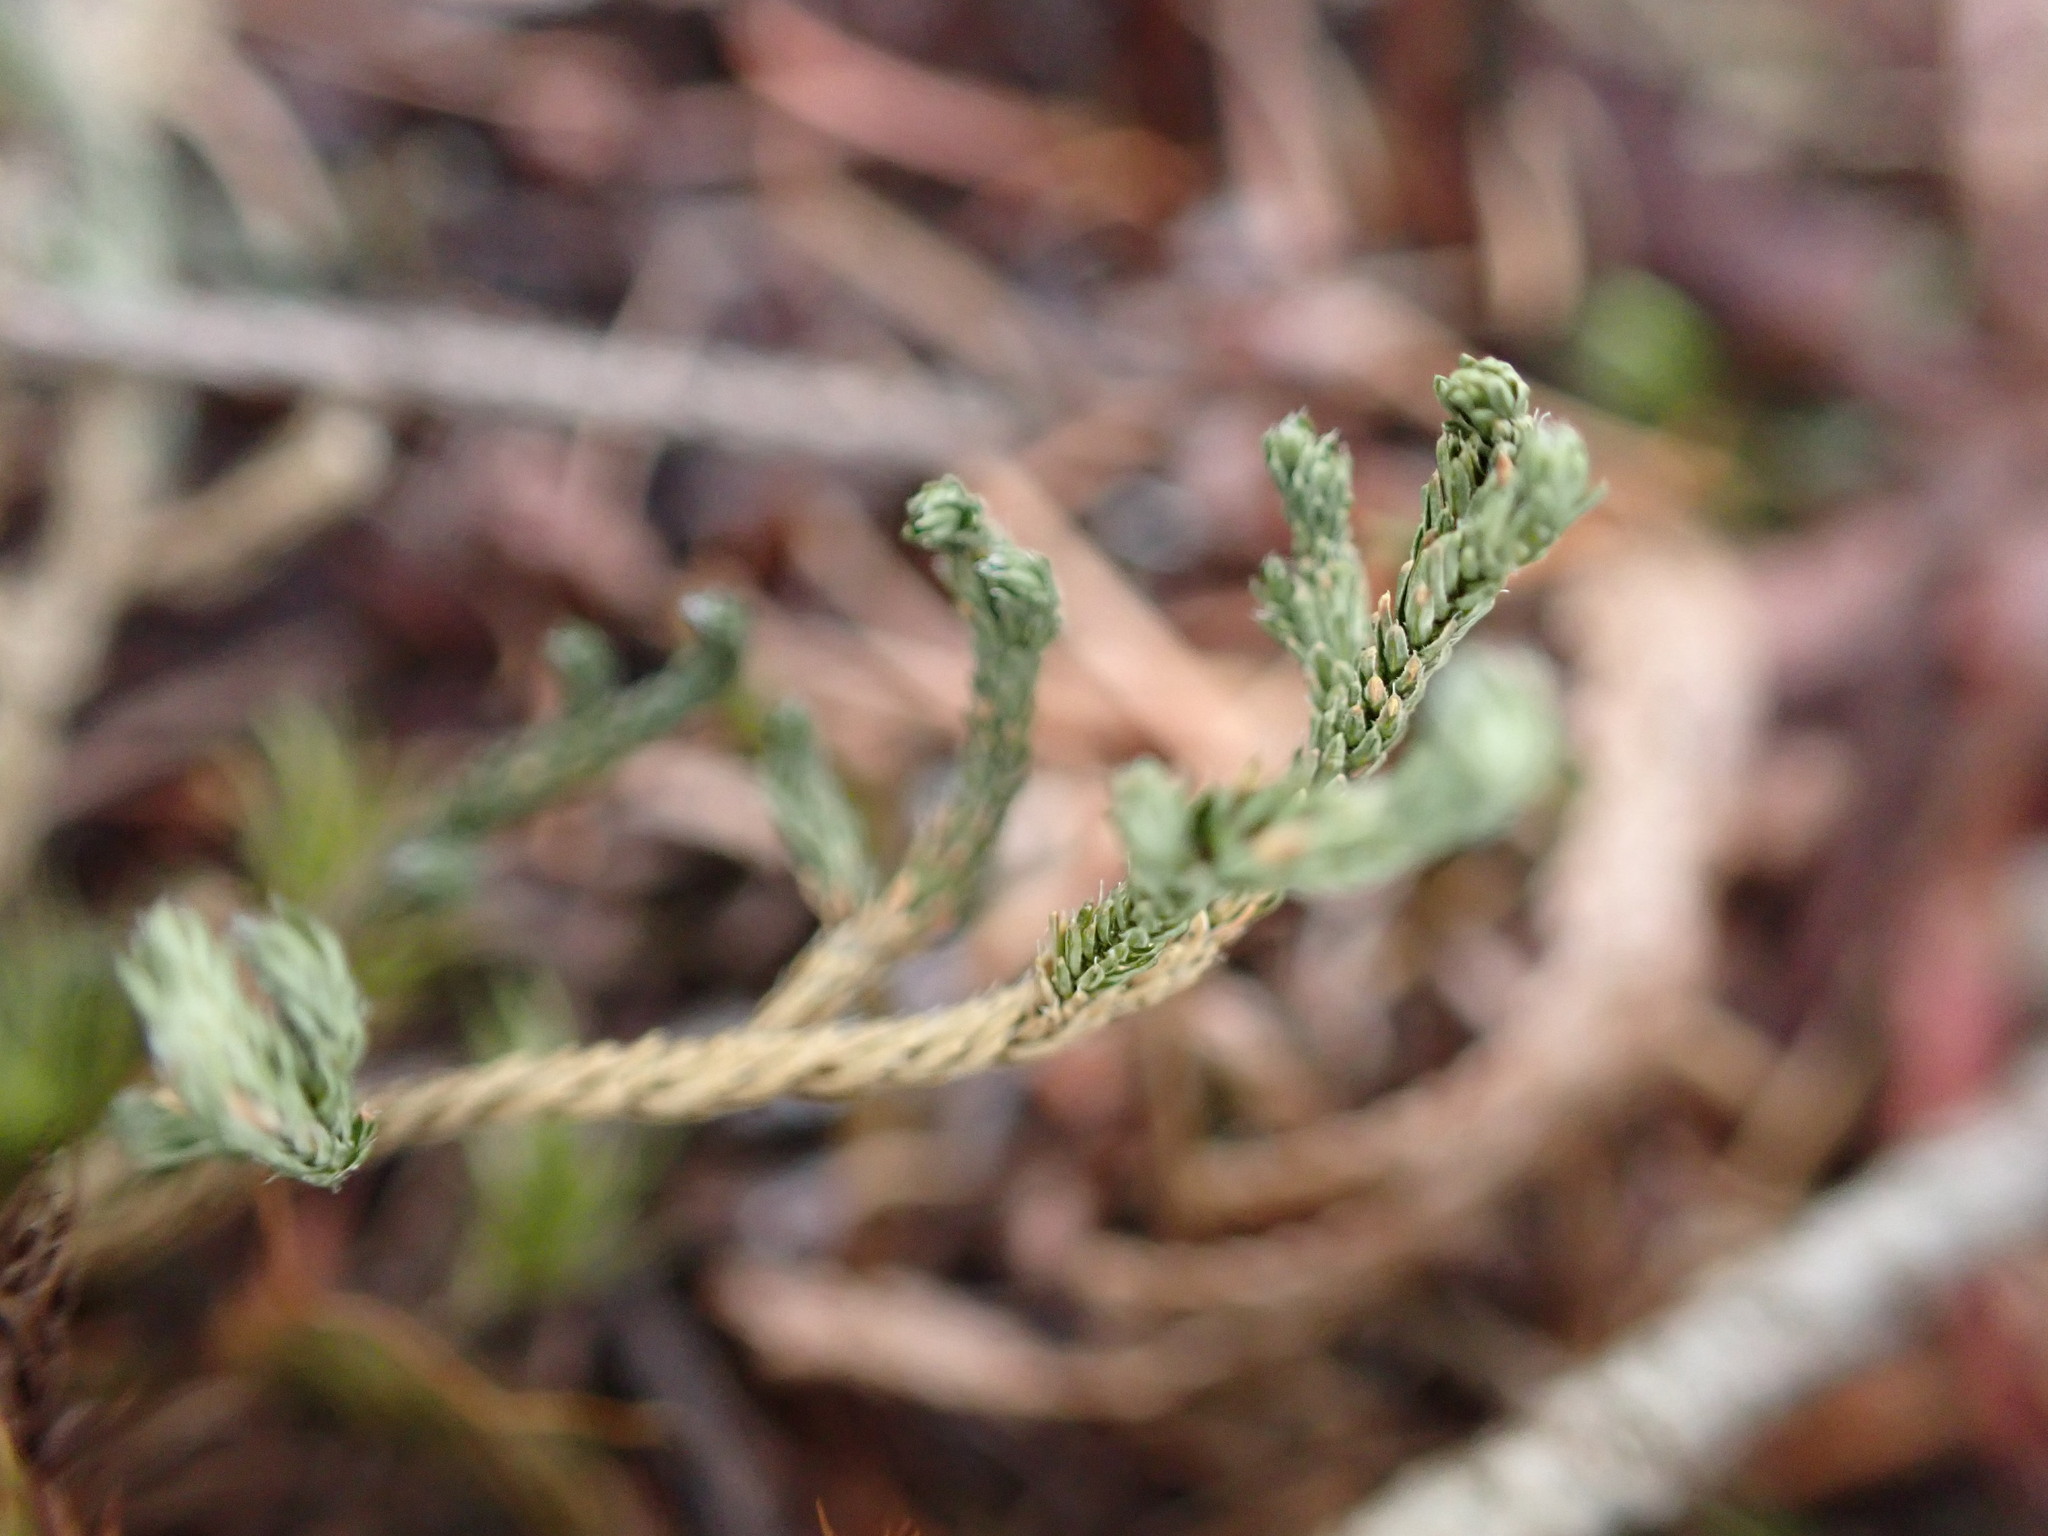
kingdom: Plantae
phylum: Tracheophyta
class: Lycopodiopsida
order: Selaginellales
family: Selaginellaceae
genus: Selaginella
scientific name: Selaginella wallacei
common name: Wallace's selaginella
